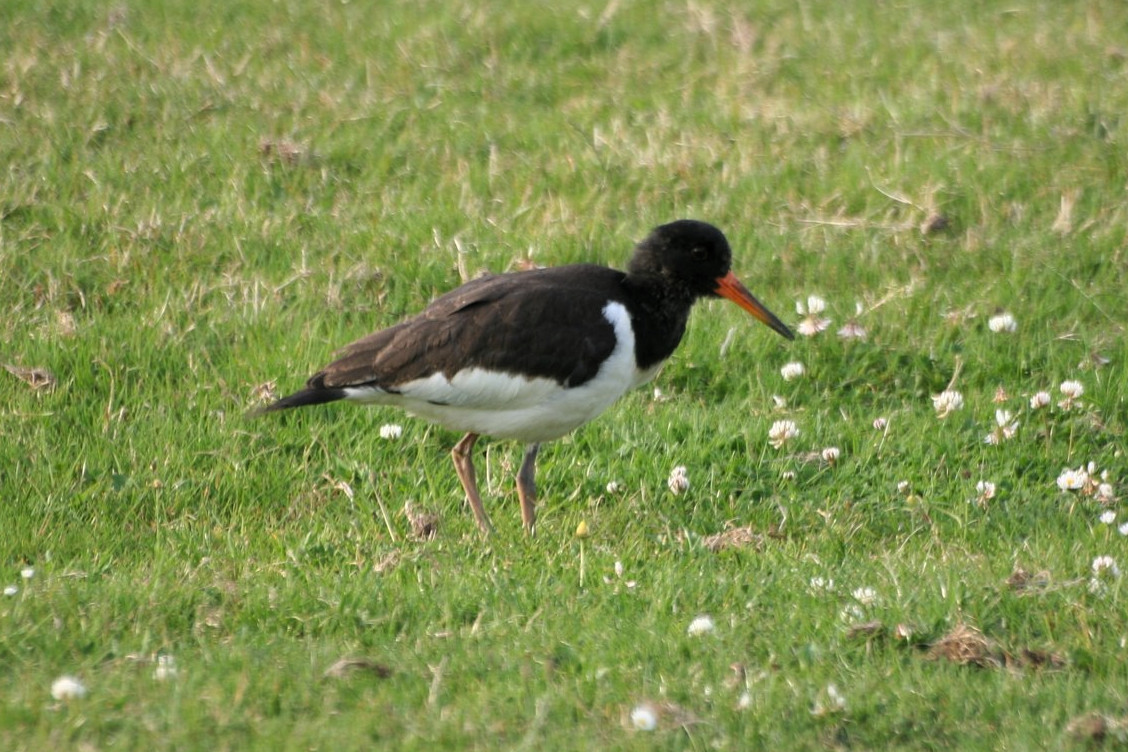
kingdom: Animalia
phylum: Chordata
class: Aves
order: Charadriiformes
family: Haematopodidae
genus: Haematopus
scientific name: Haematopus ostralegus
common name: Eurasian oystercatcher
